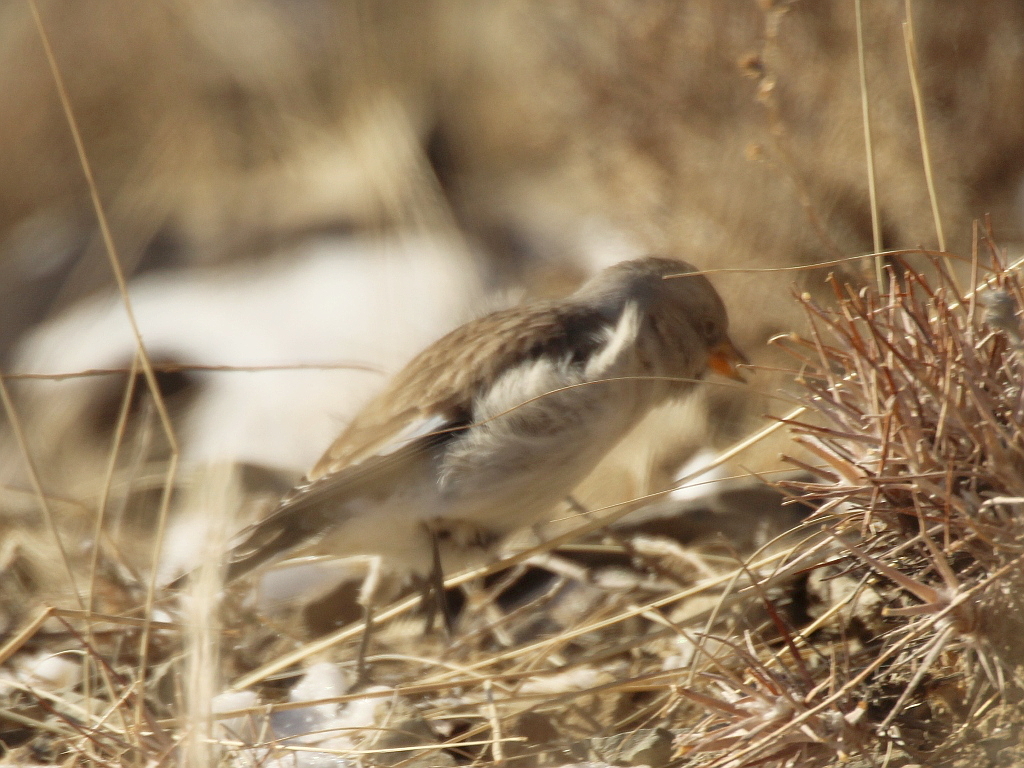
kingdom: Animalia
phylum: Chordata
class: Aves
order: Passeriformes
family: Passeridae
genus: Montifringilla
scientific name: Montifringilla nivalis
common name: White-winged snowfinch
